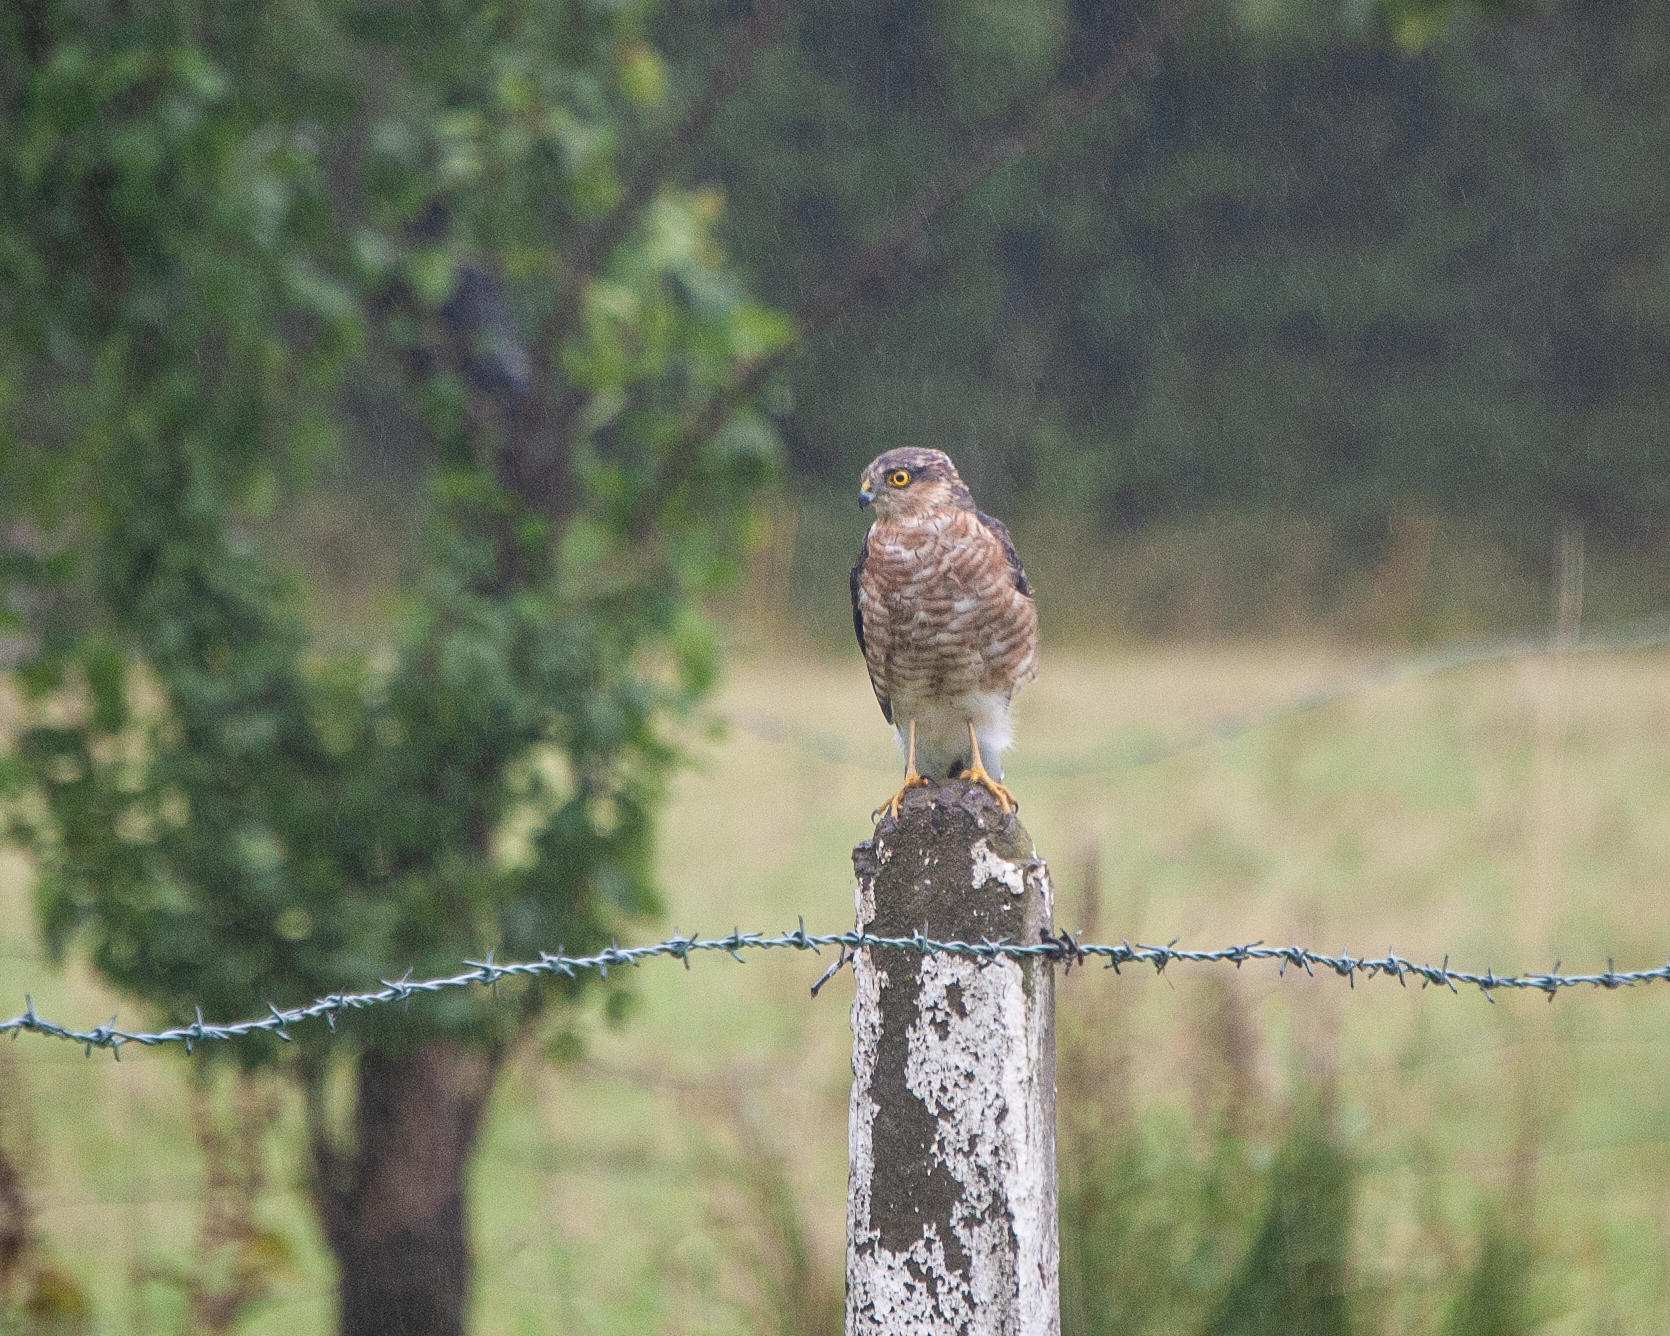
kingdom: Animalia
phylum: Chordata
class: Aves
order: Accipitriformes
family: Accipitridae
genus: Accipiter
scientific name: Accipiter nisus
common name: Eurasian sparrowhawk
